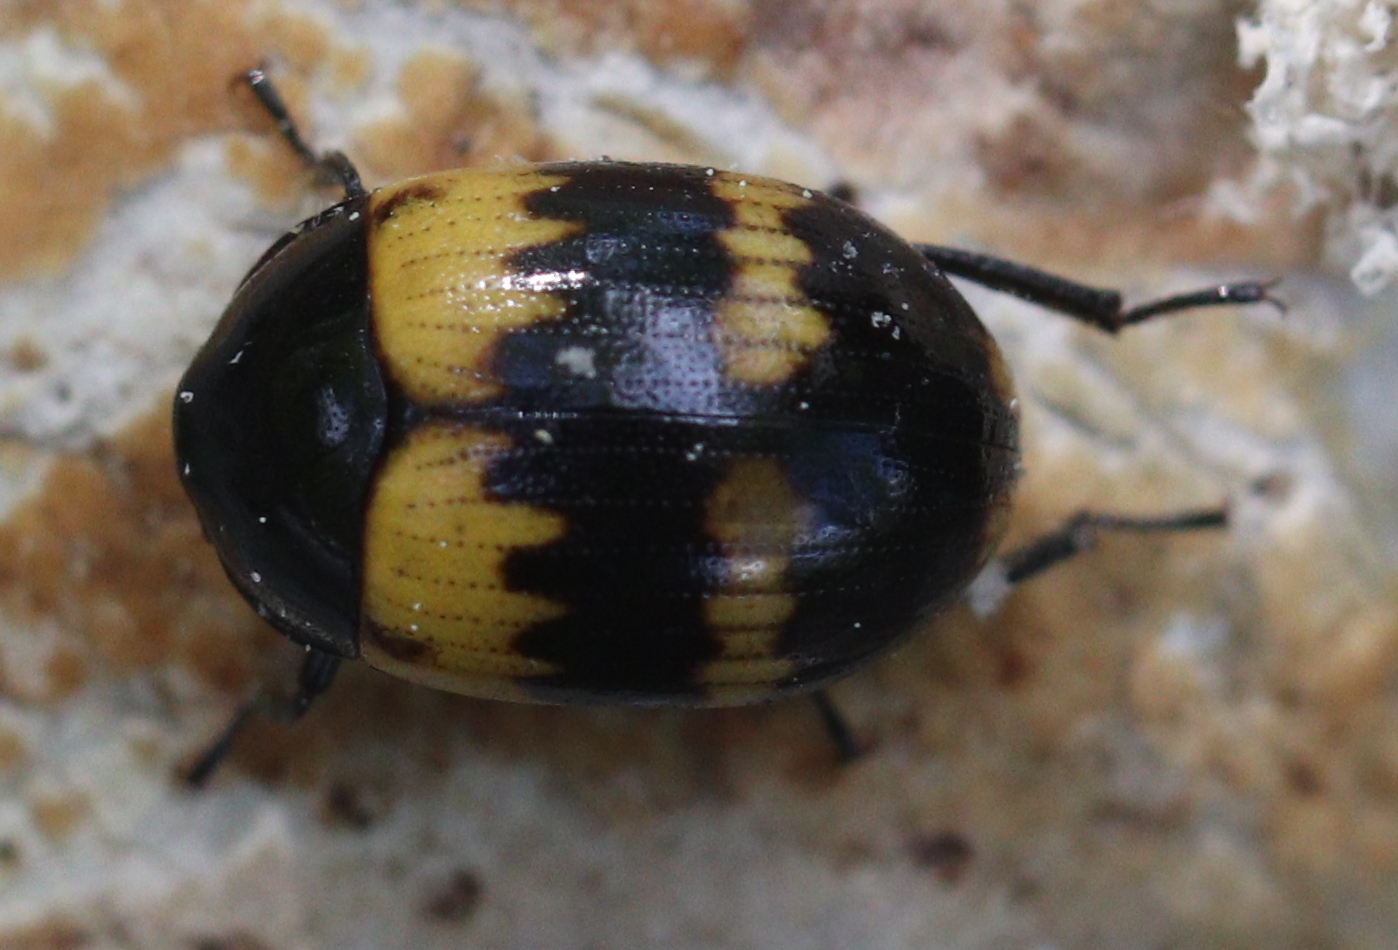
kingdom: Animalia
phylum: Arthropoda
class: Insecta
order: Coleoptera
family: Tenebrionidae
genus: Diaperis
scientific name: Diaperis boleti
